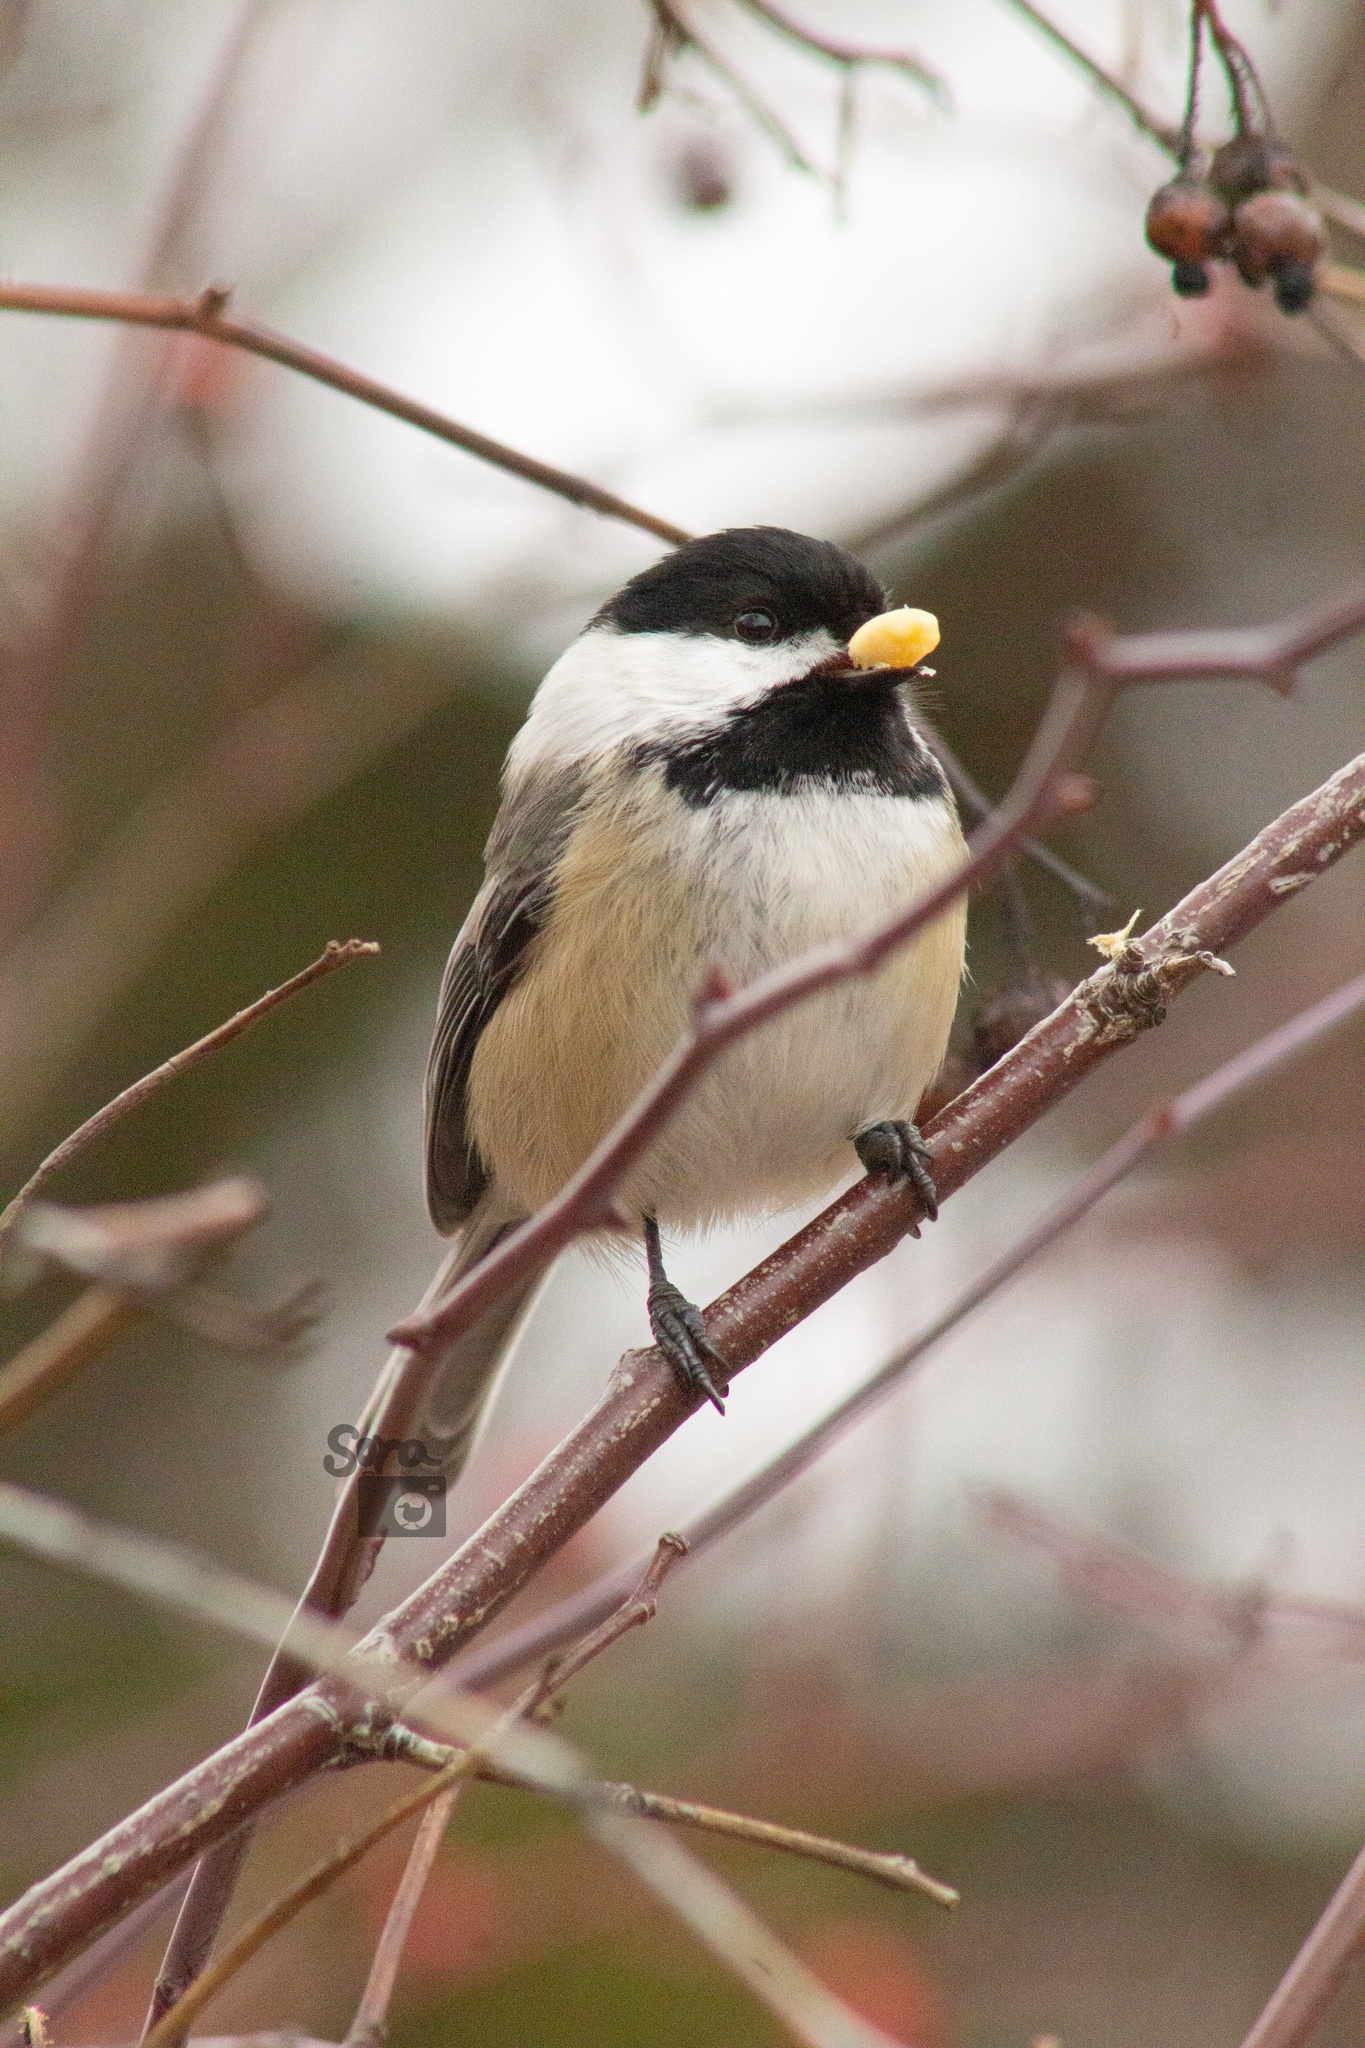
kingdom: Animalia
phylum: Chordata
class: Aves
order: Passeriformes
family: Paridae
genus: Poecile
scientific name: Poecile atricapillus
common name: Black-capped chickadee
